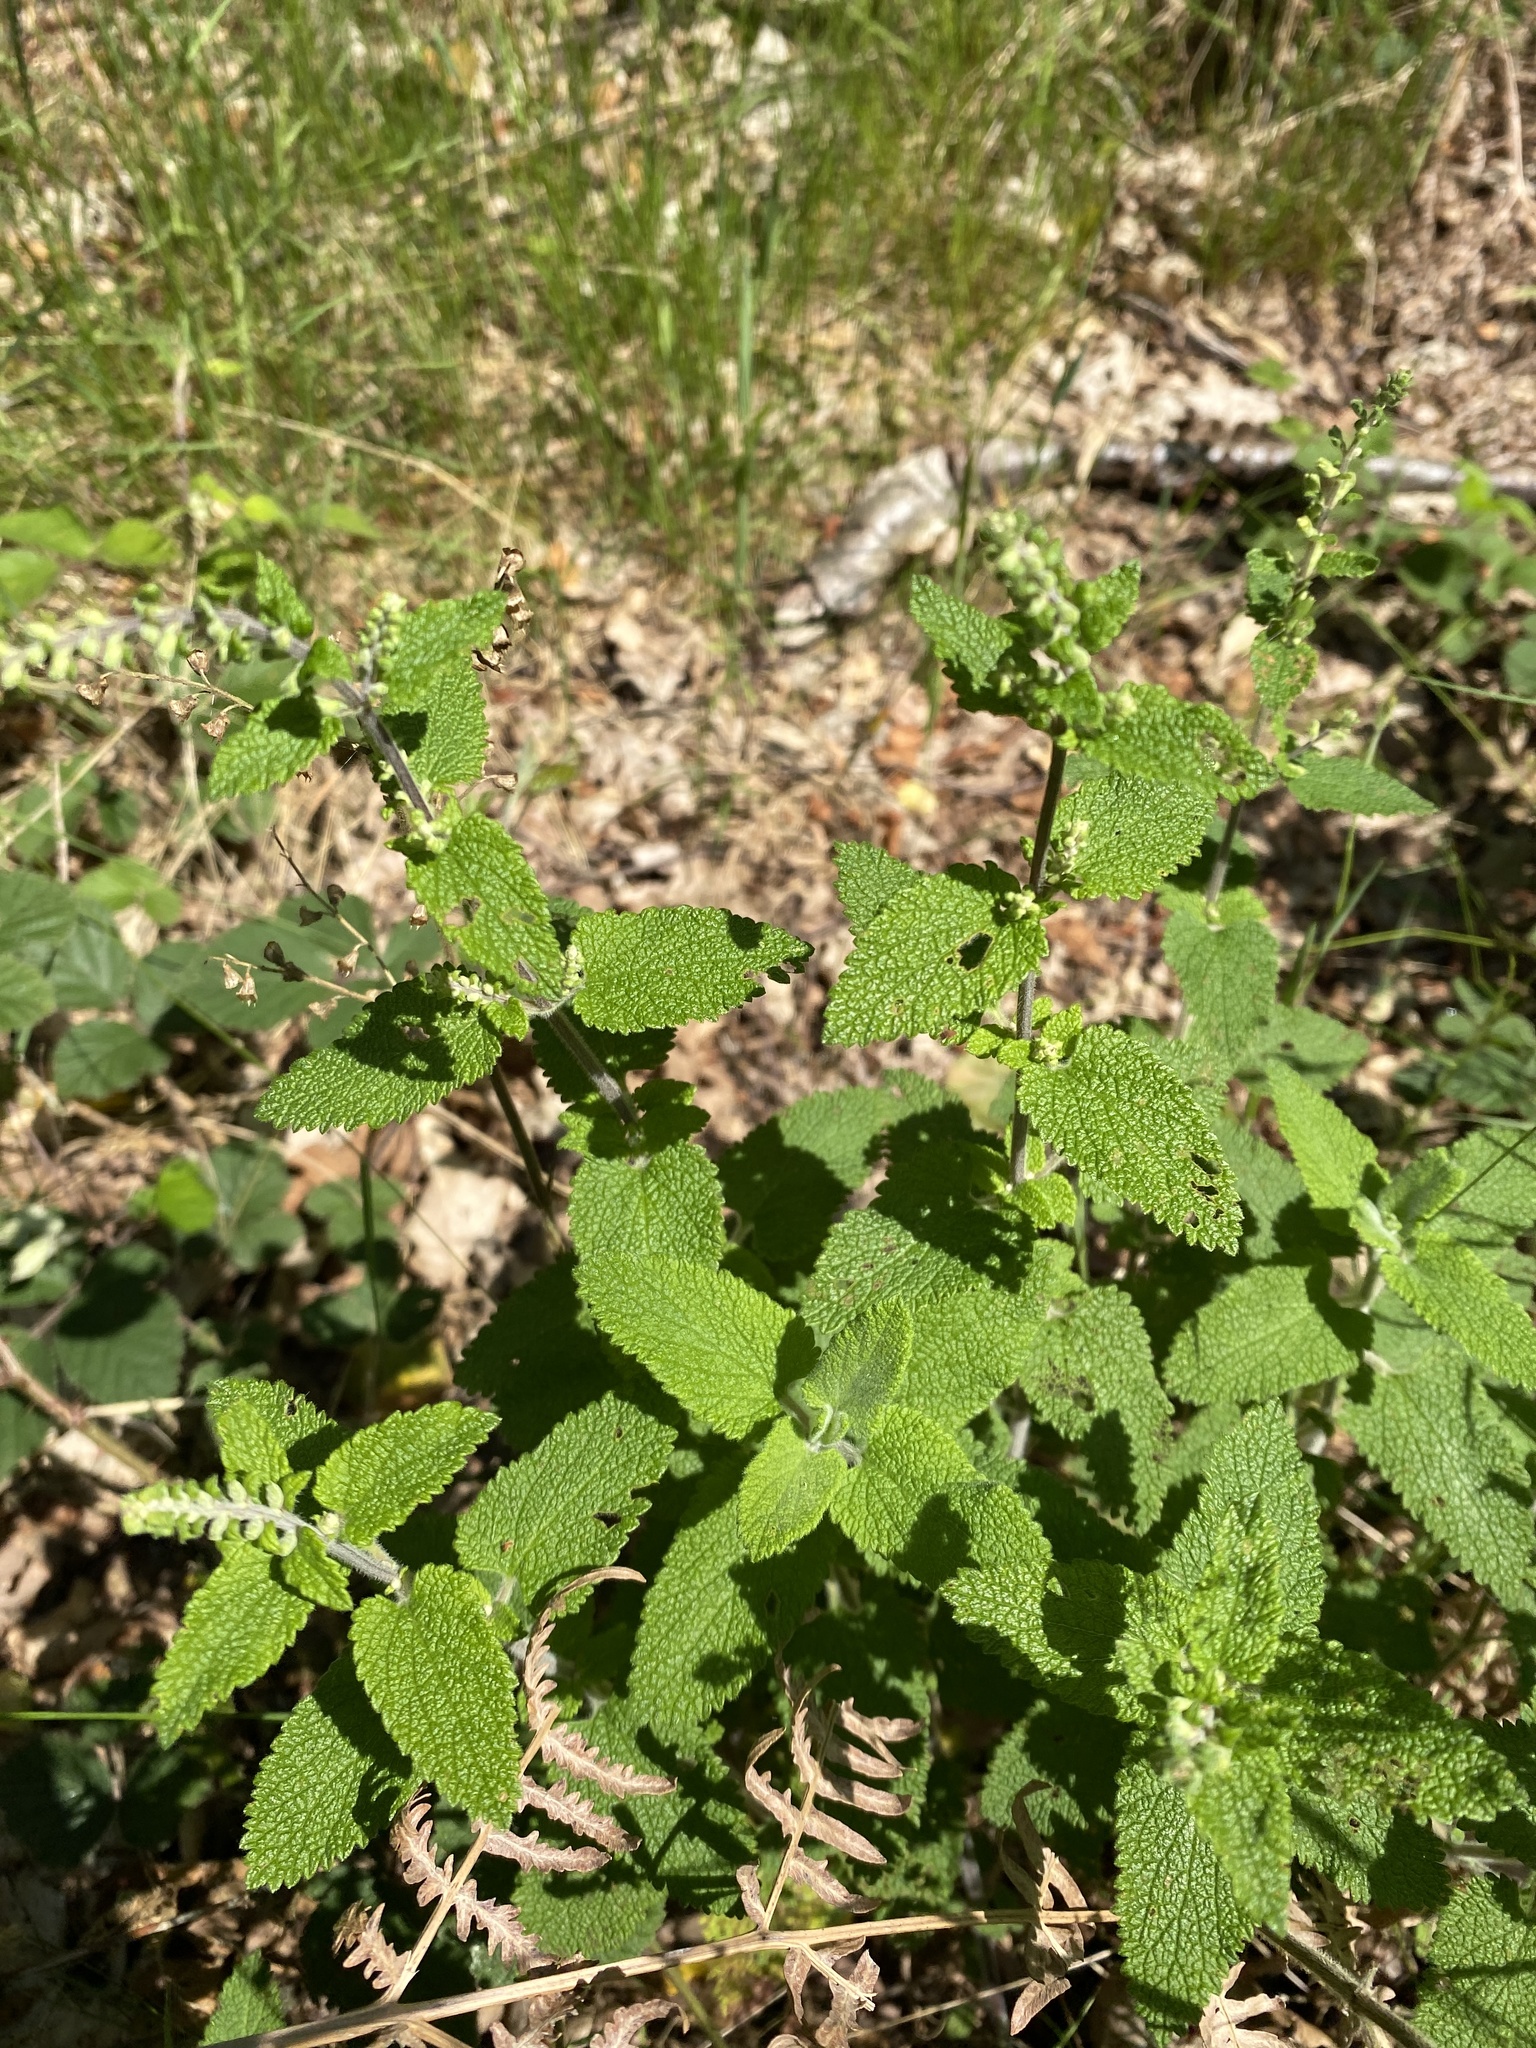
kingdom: Plantae
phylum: Tracheophyta
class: Magnoliopsida
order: Lamiales
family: Lamiaceae
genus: Teucrium
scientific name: Teucrium scorodonia
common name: Woodland germander
